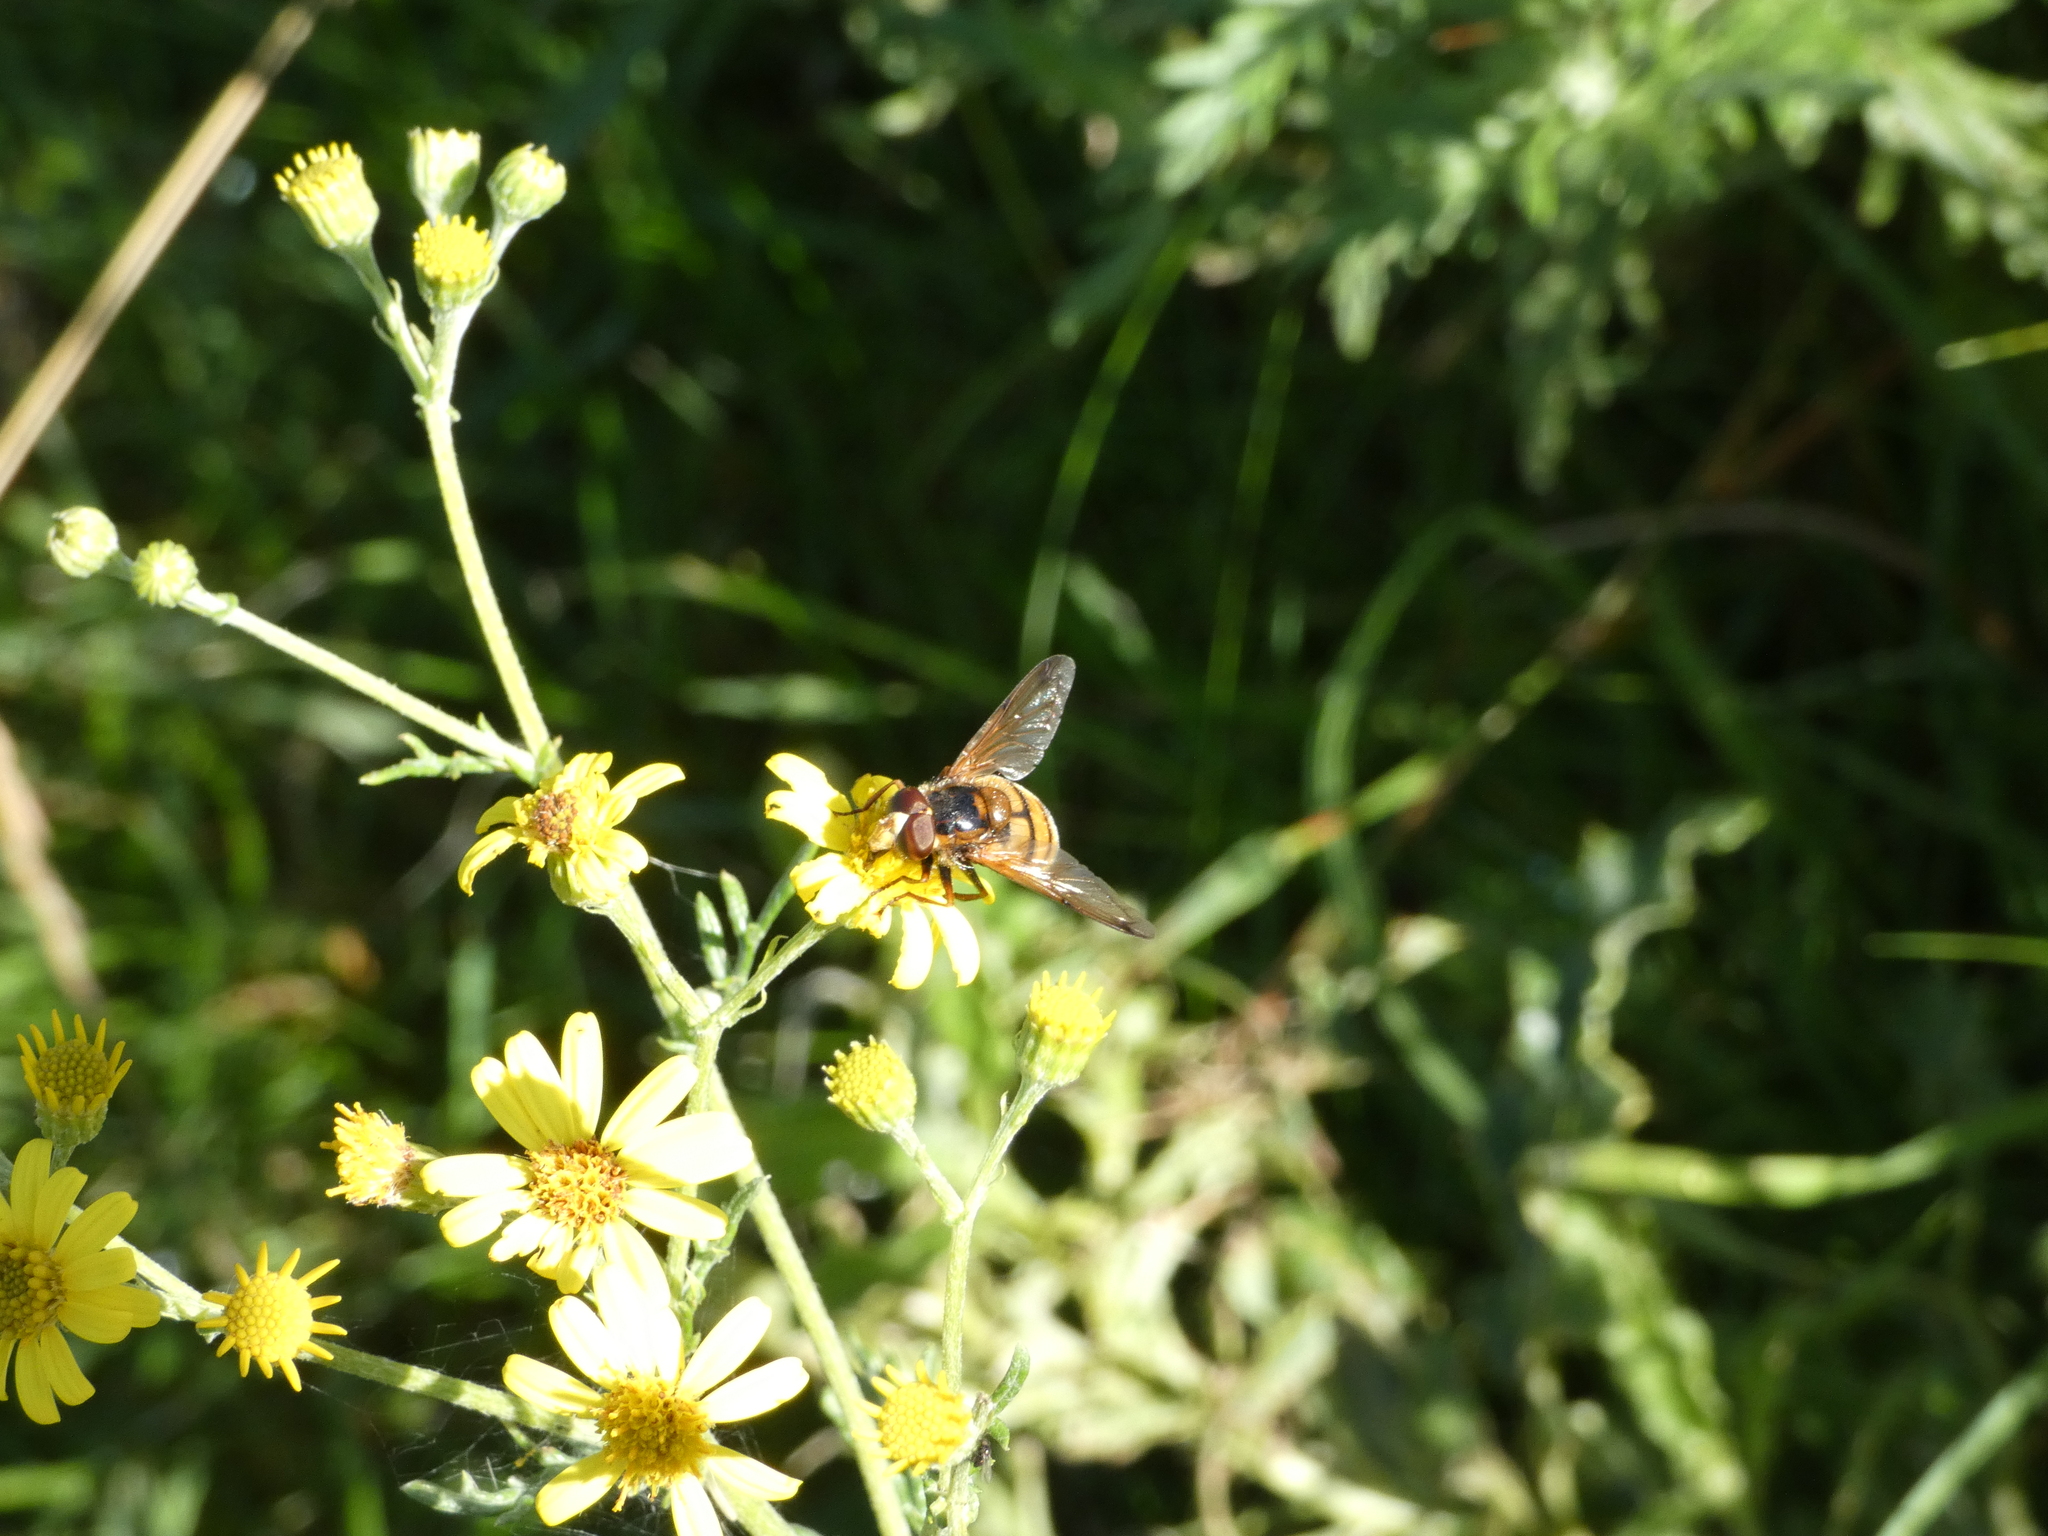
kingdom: Animalia
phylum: Arthropoda
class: Insecta
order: Diptera
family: Syrphidae
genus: Volucella
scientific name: Volucella inanis
